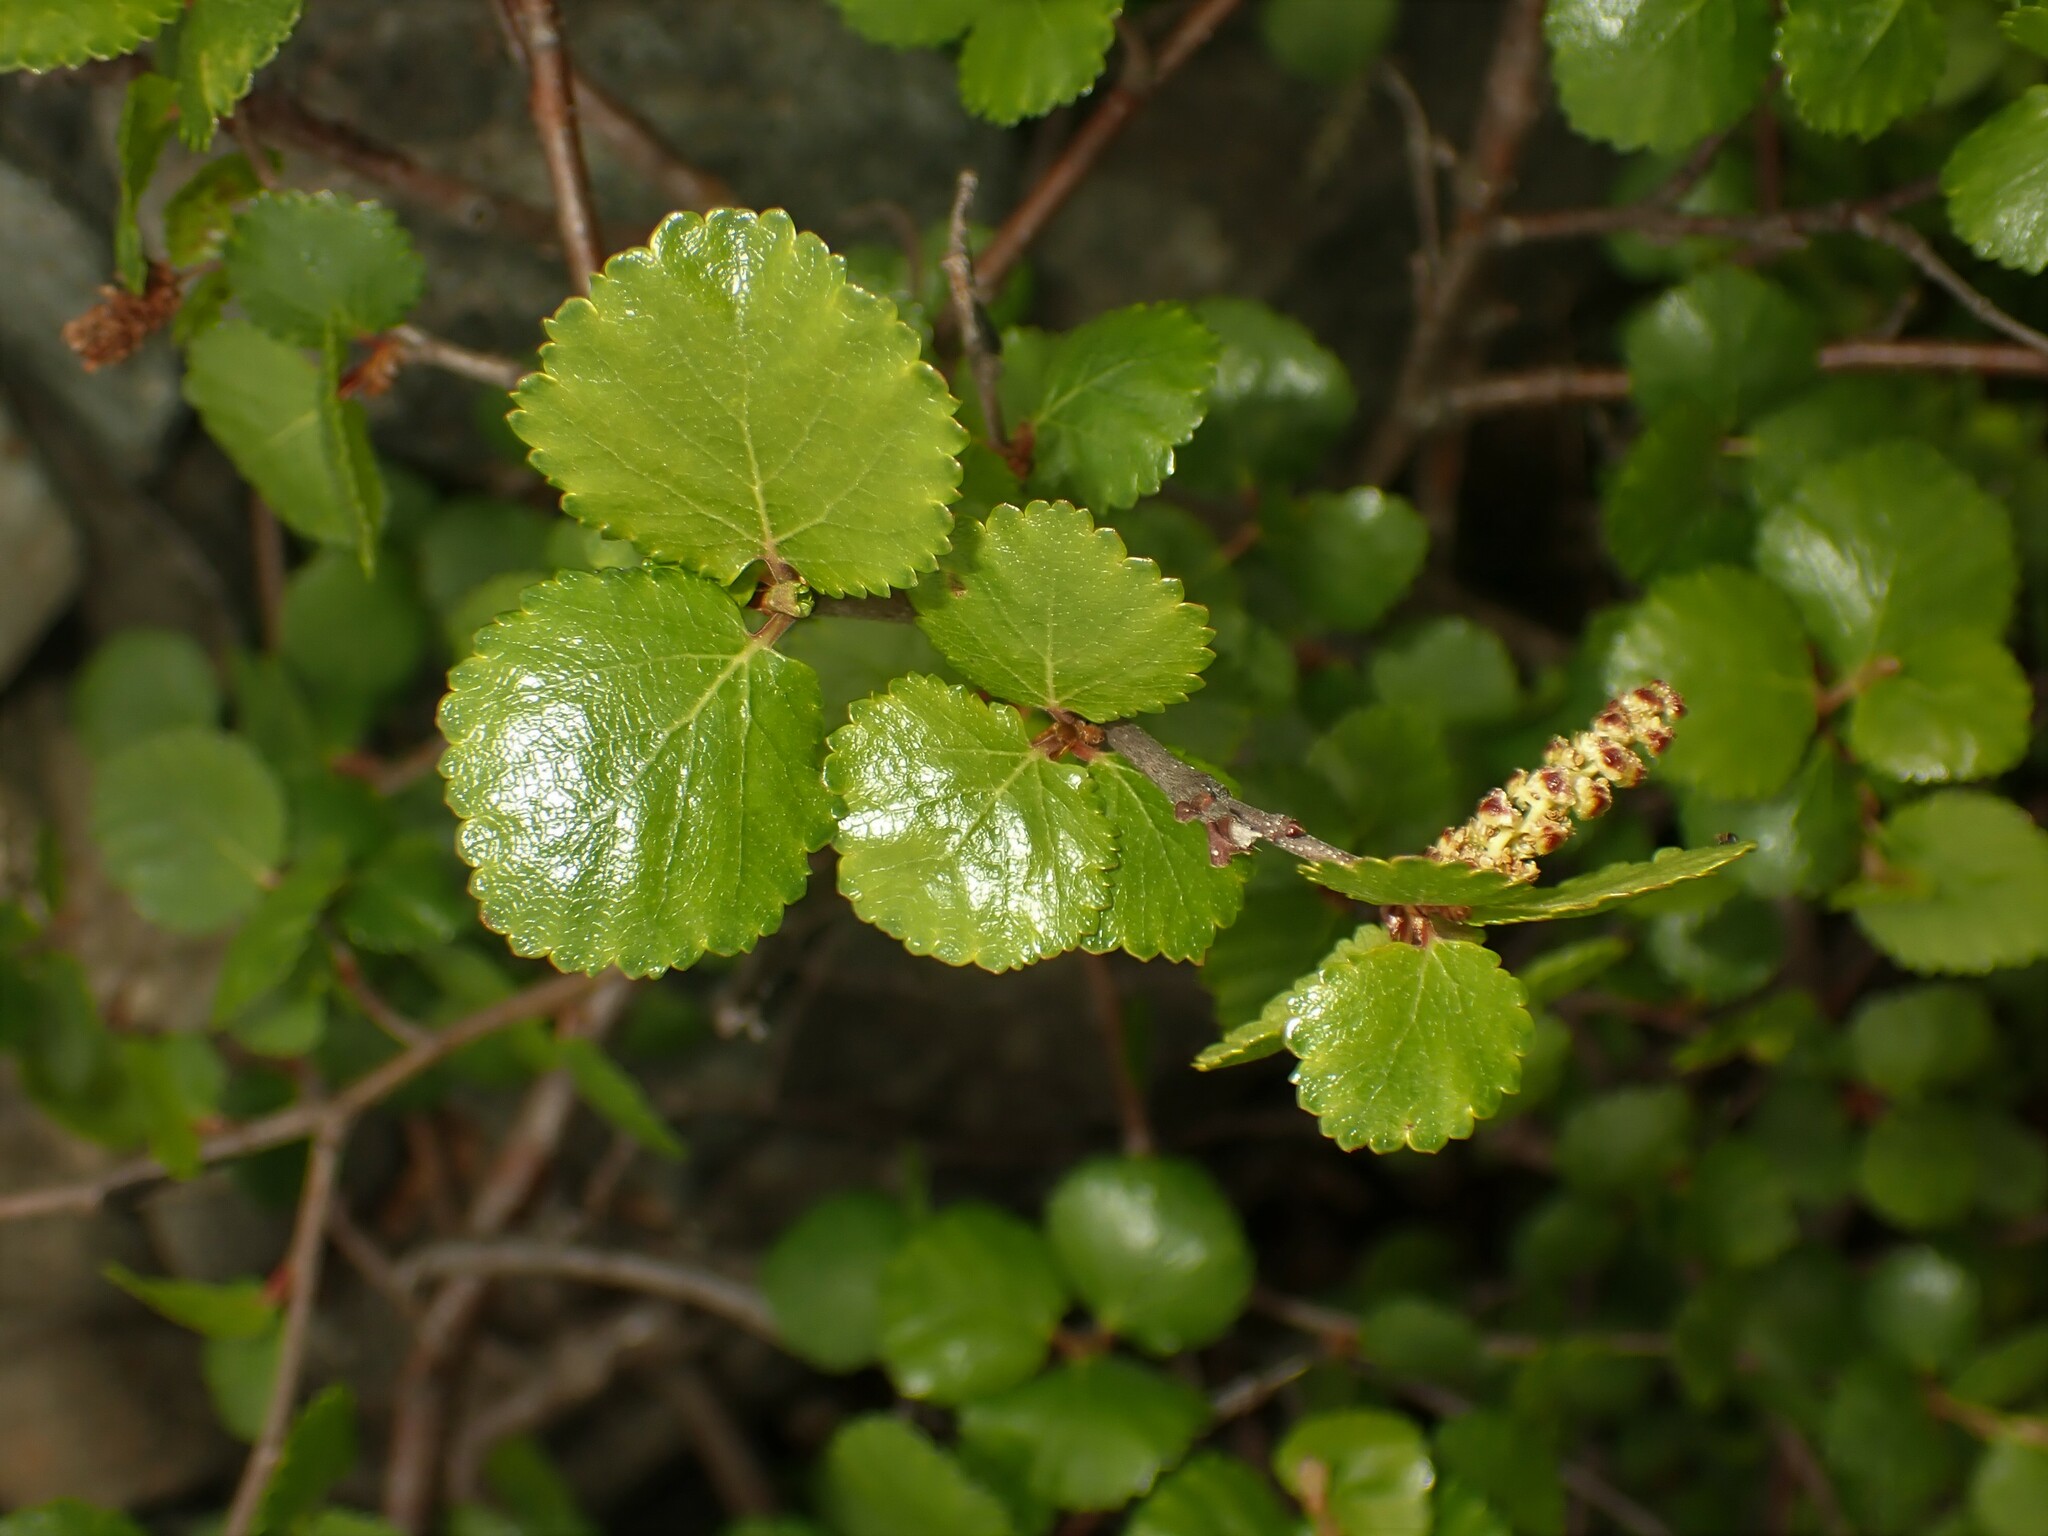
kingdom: Plantae
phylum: Tracheophyta
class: Magnoliopsida
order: Fagales
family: Betulaceae
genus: Betula
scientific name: Betula glandulosa
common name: Dwarf birch
